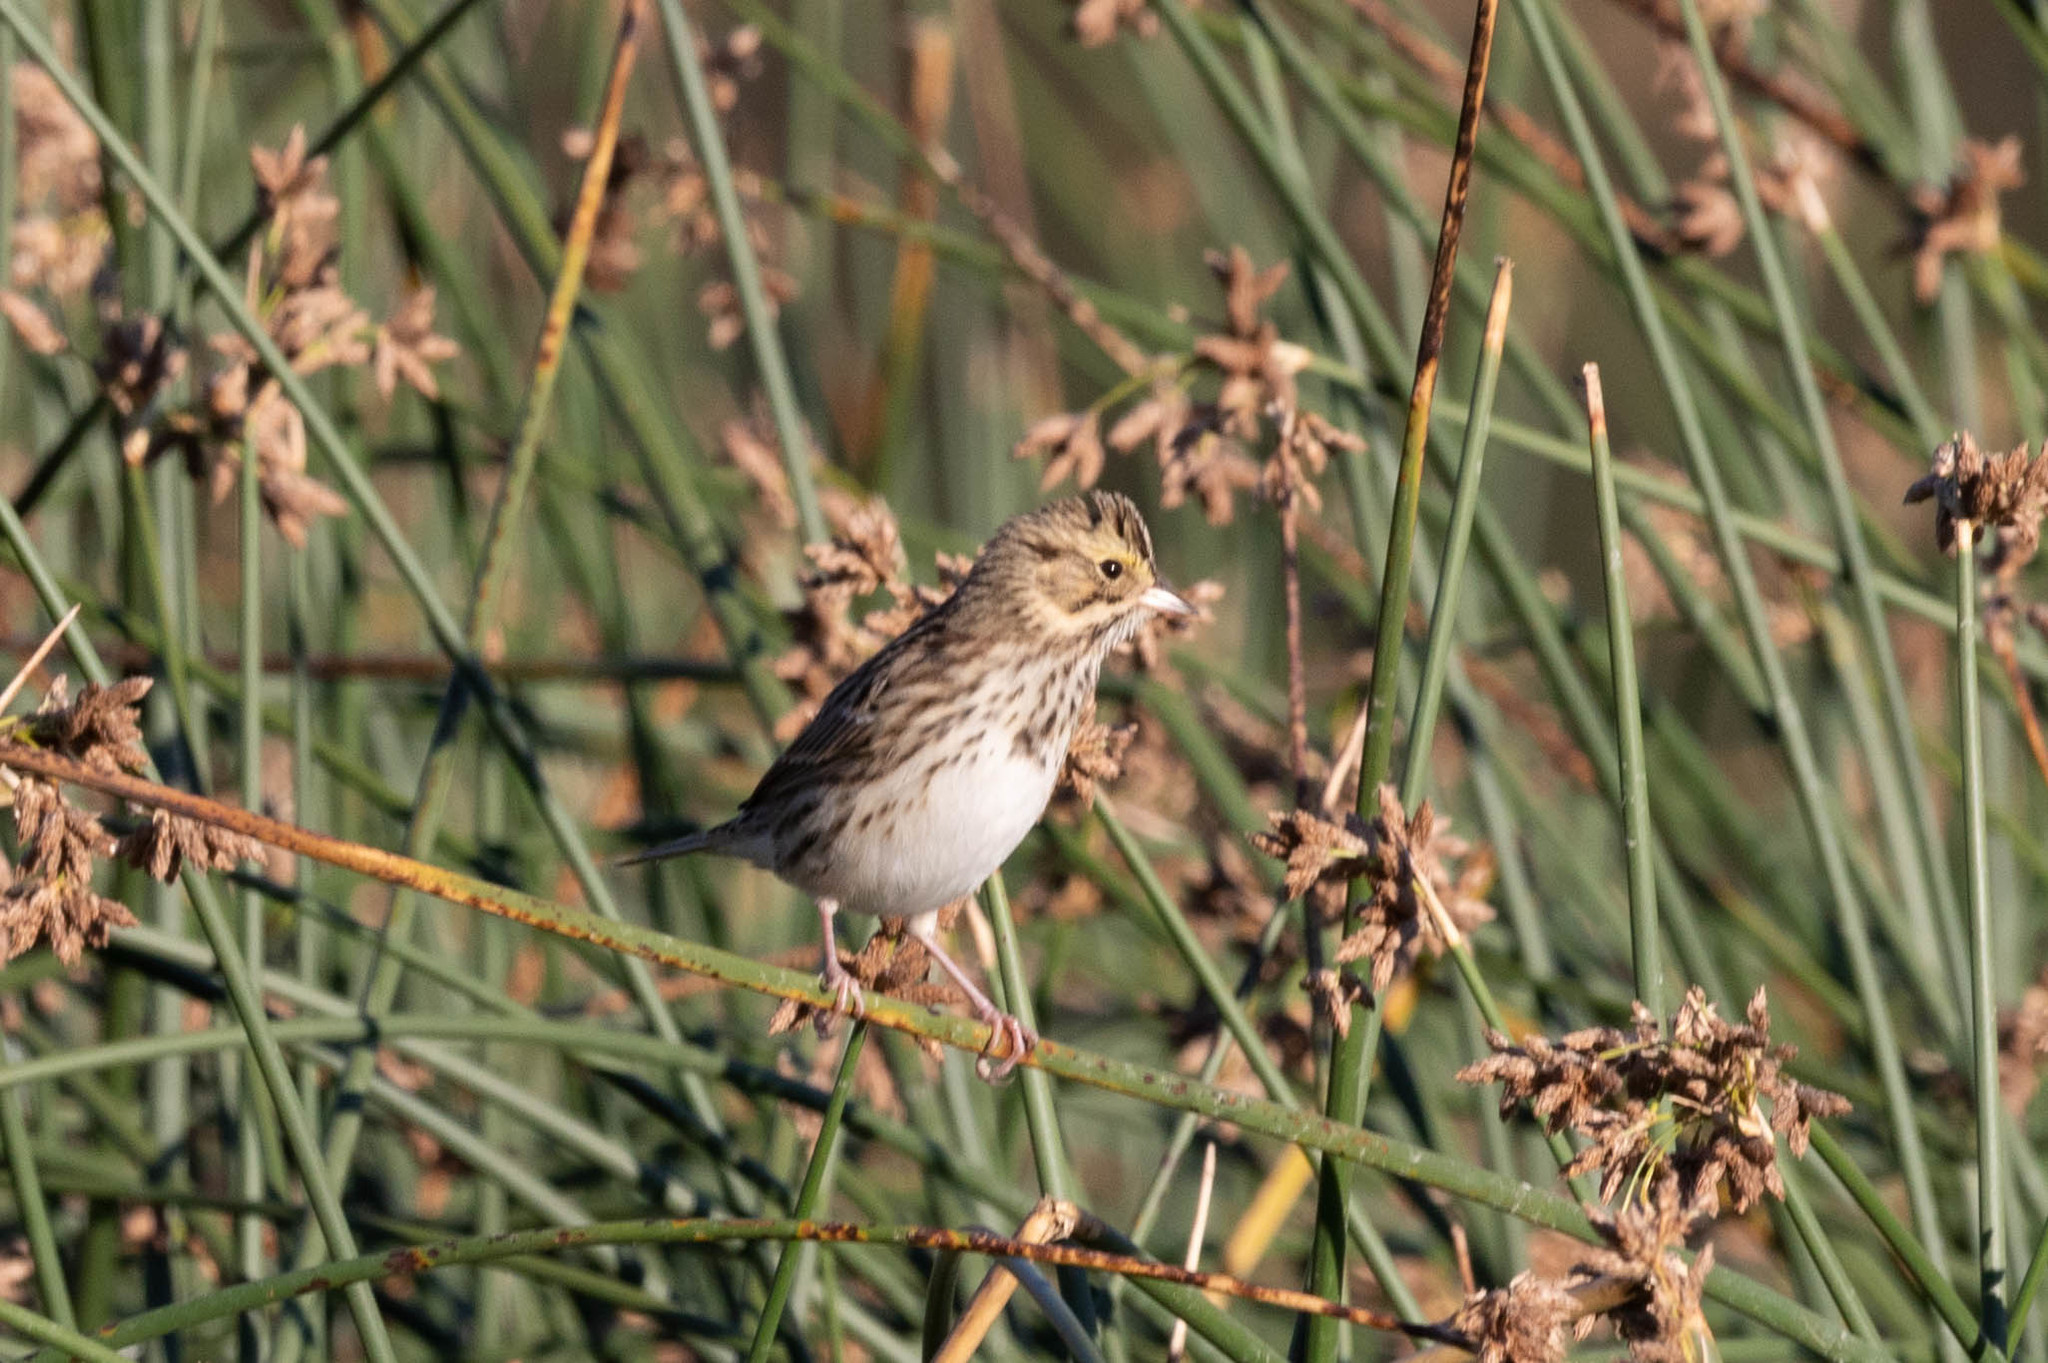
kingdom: Animalia
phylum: Chordata
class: Aves
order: Passeriformes
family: Passerellidae
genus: Passerculus
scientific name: Passerculus sandwichensis
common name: Savannah sparrow
